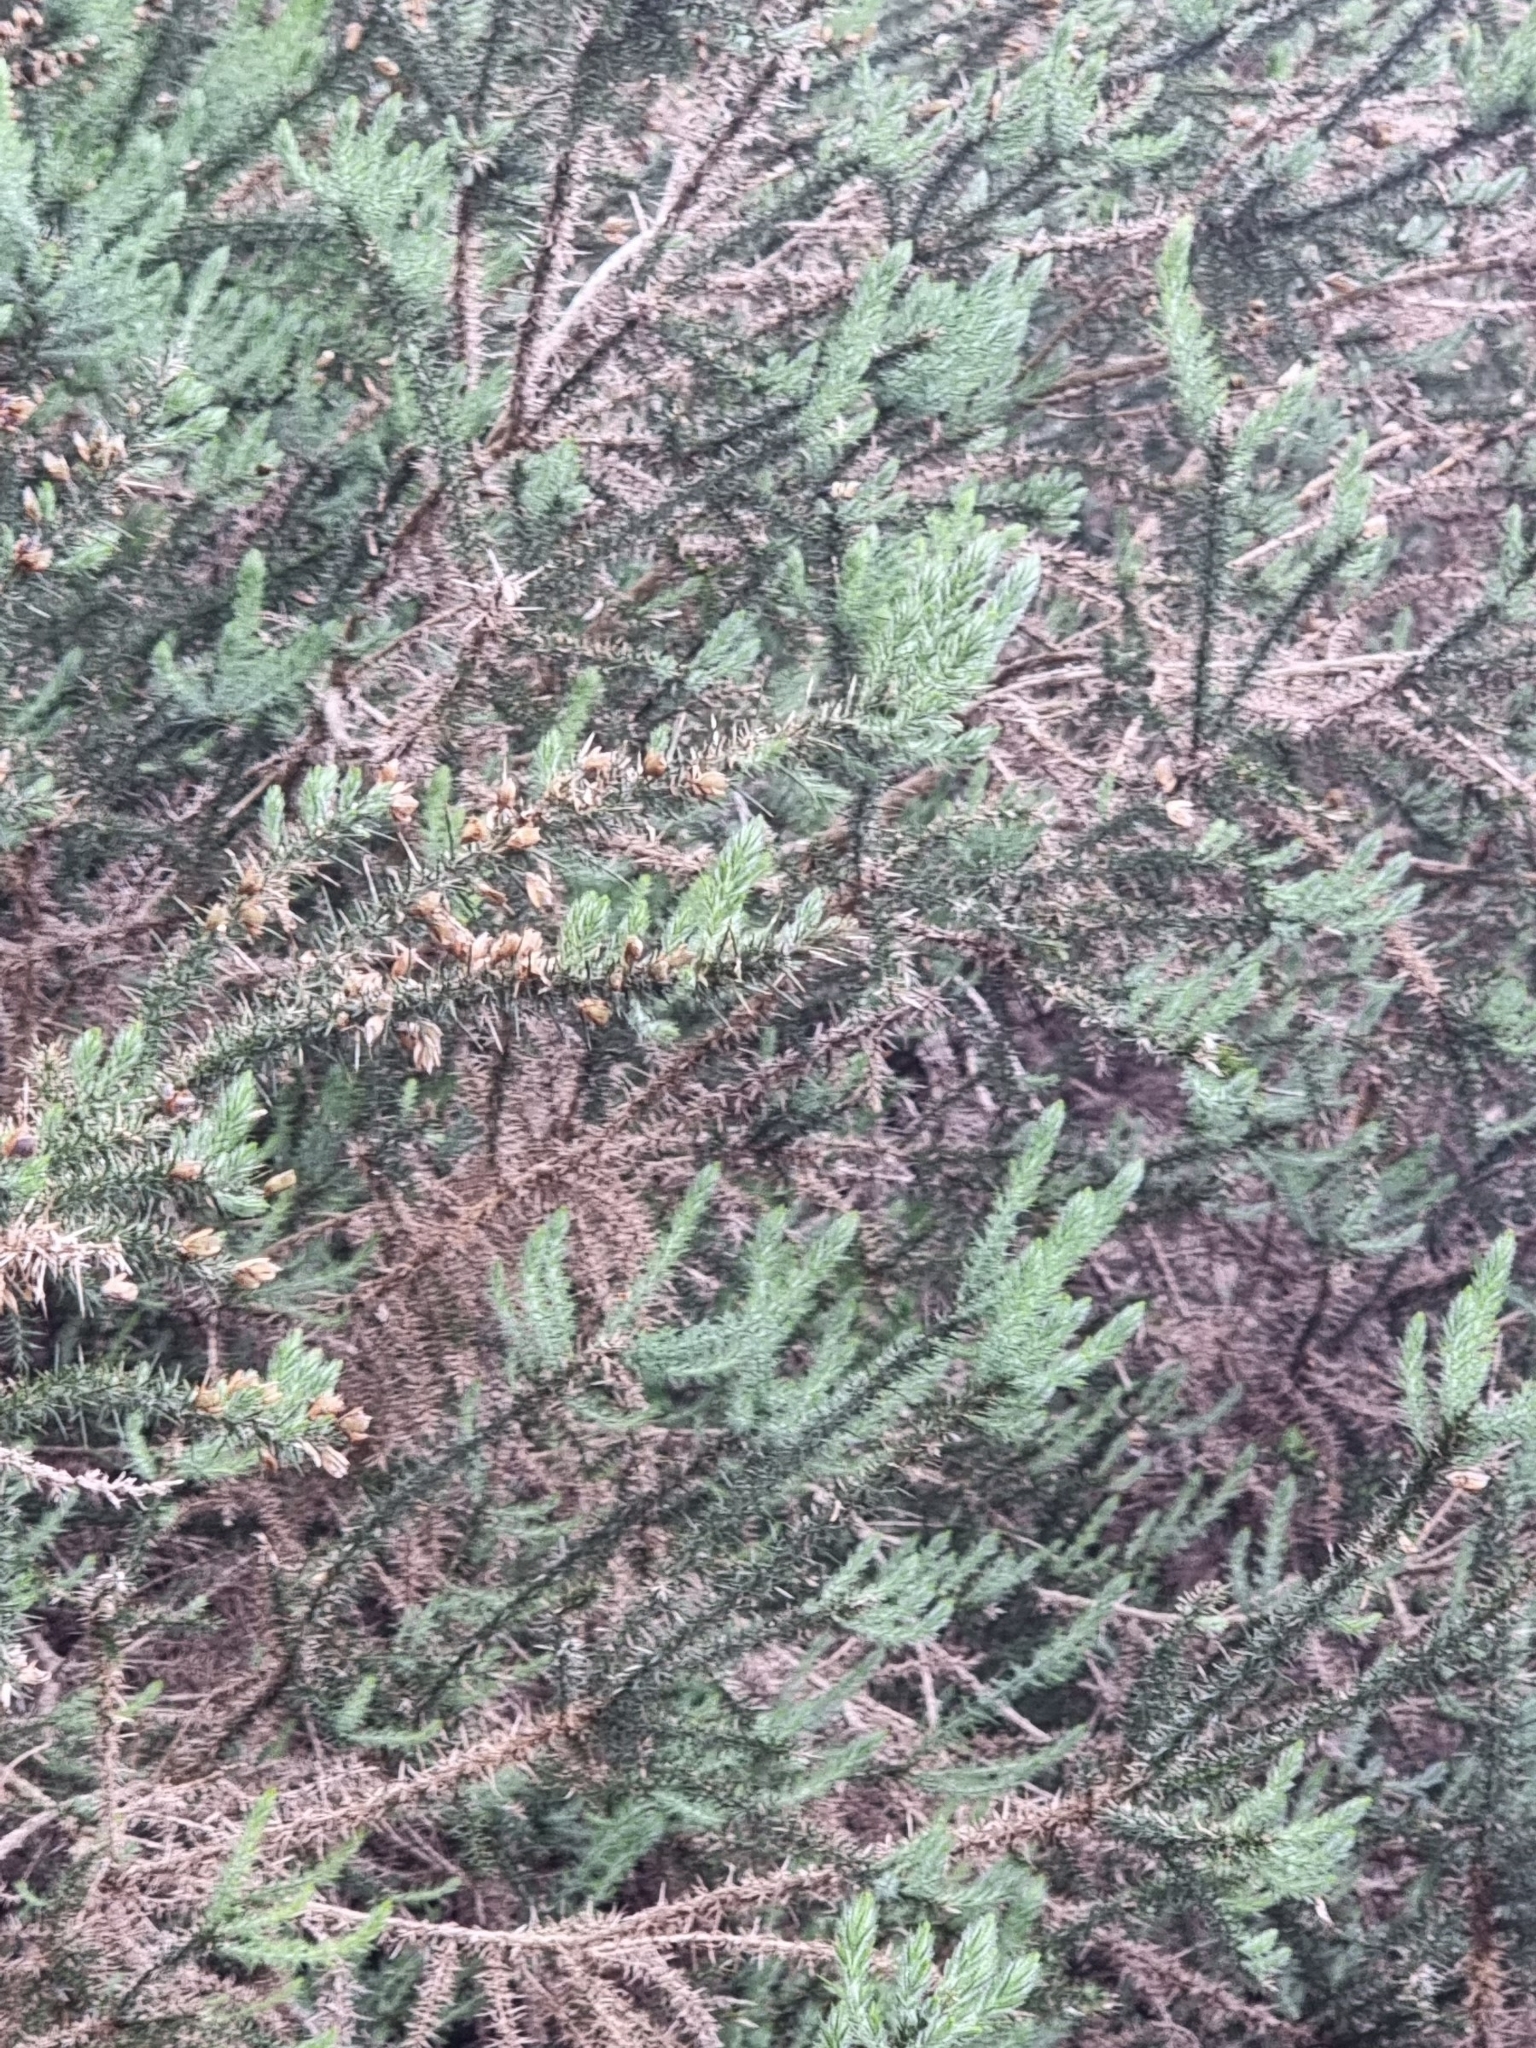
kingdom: Plantae
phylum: Tracheophyta
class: Magnoliopsida
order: Fabales
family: Fabaceae
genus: Ulex
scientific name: Ulex minor
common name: Dwarf gorse
